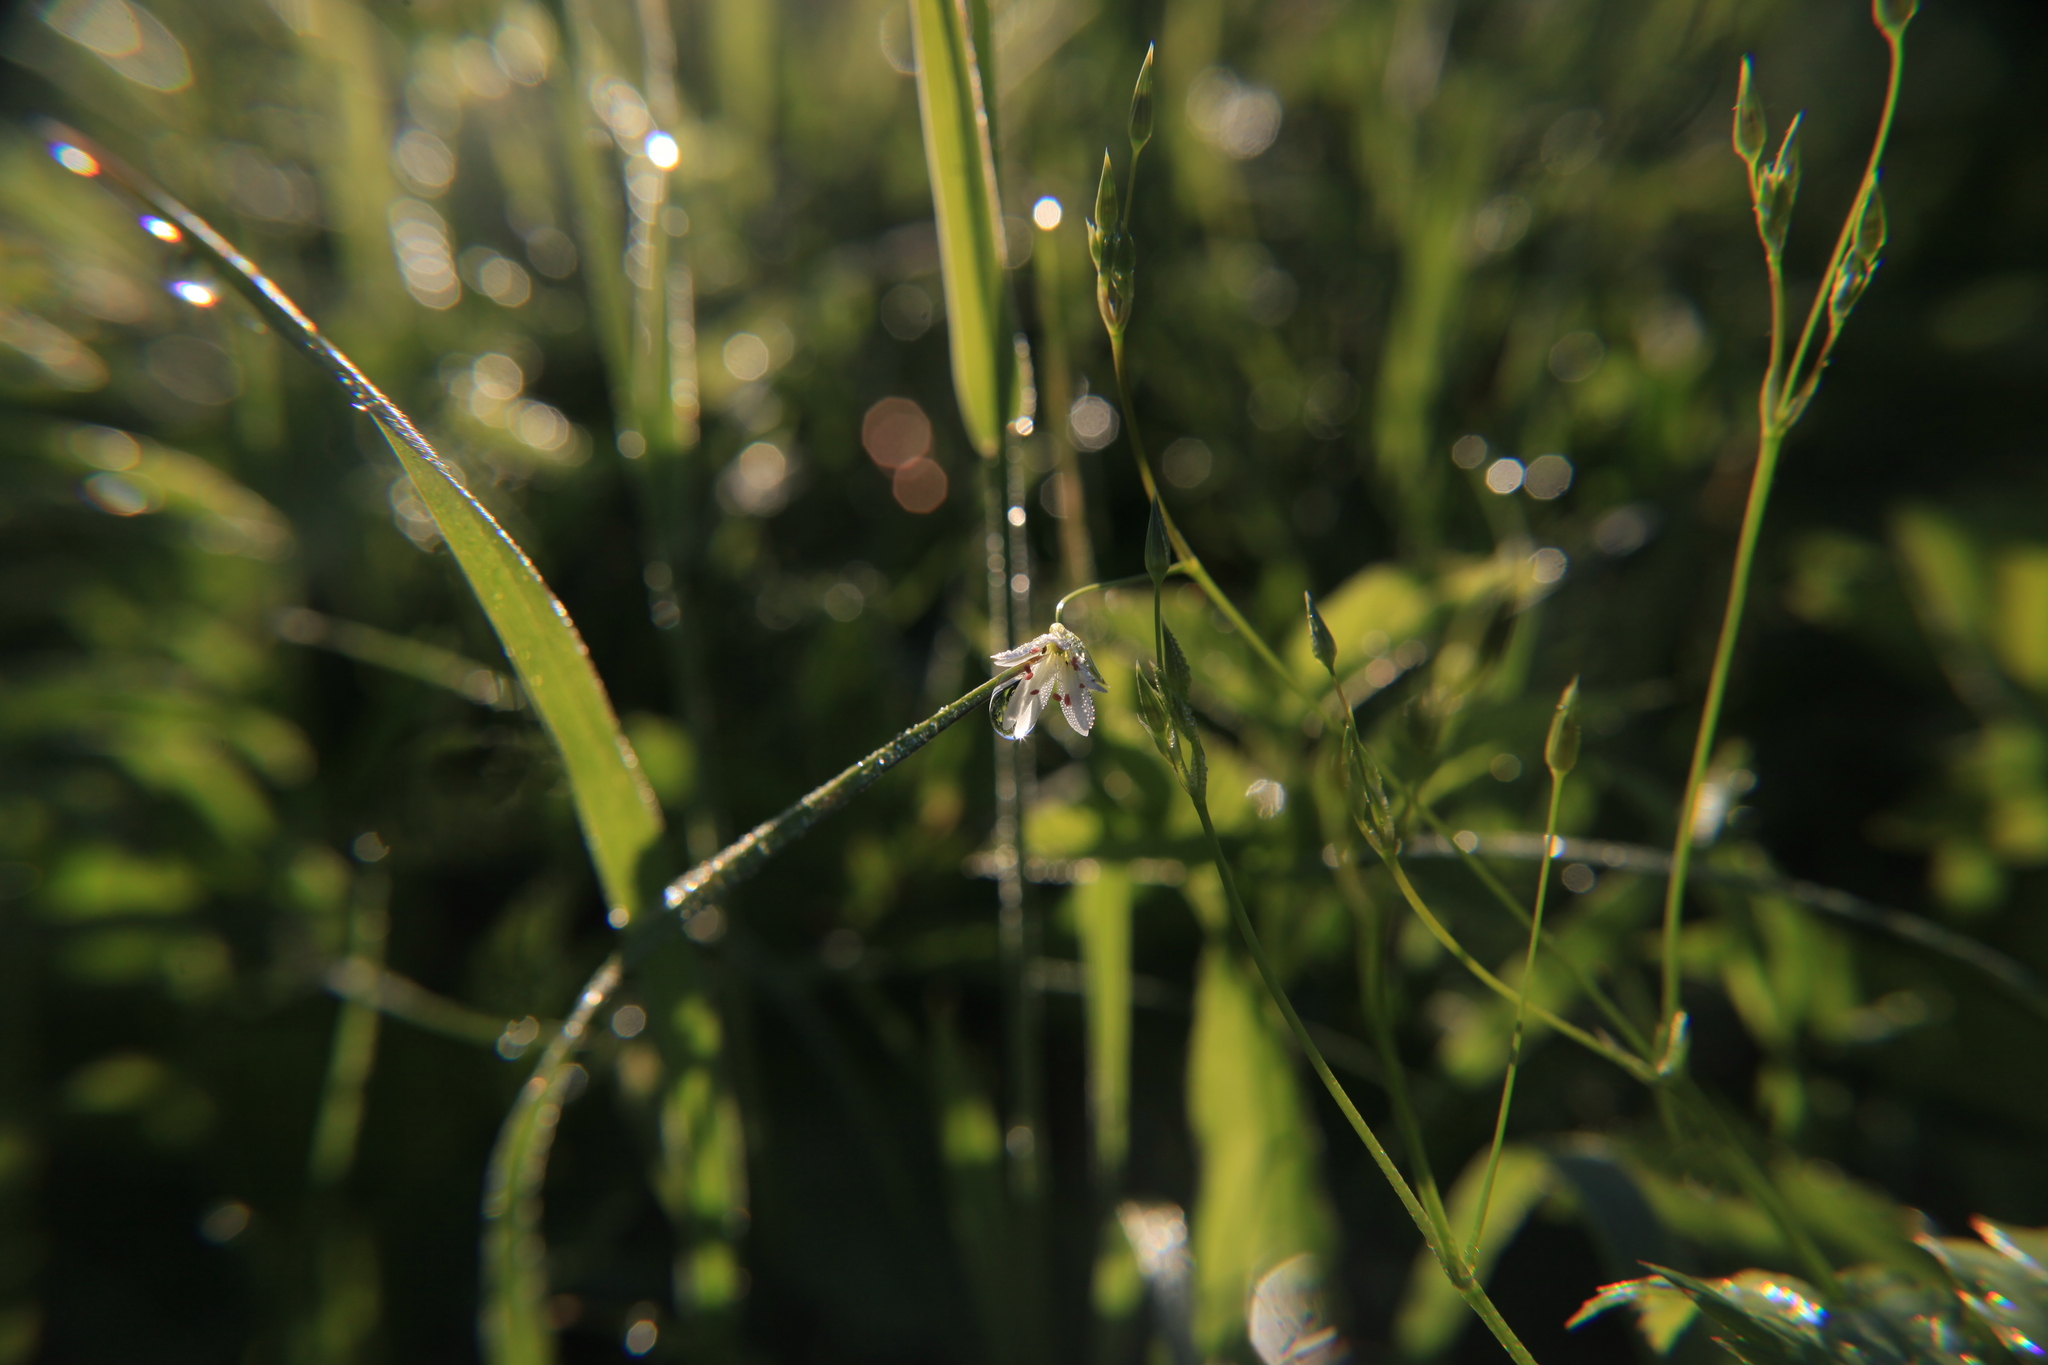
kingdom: Plantae
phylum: Tracheophyta
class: Magnoliopsida
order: Caryophyllales
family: Caryophyllaceae
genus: Stellaria
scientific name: Stellaria graminea
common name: Grass-like starwort
